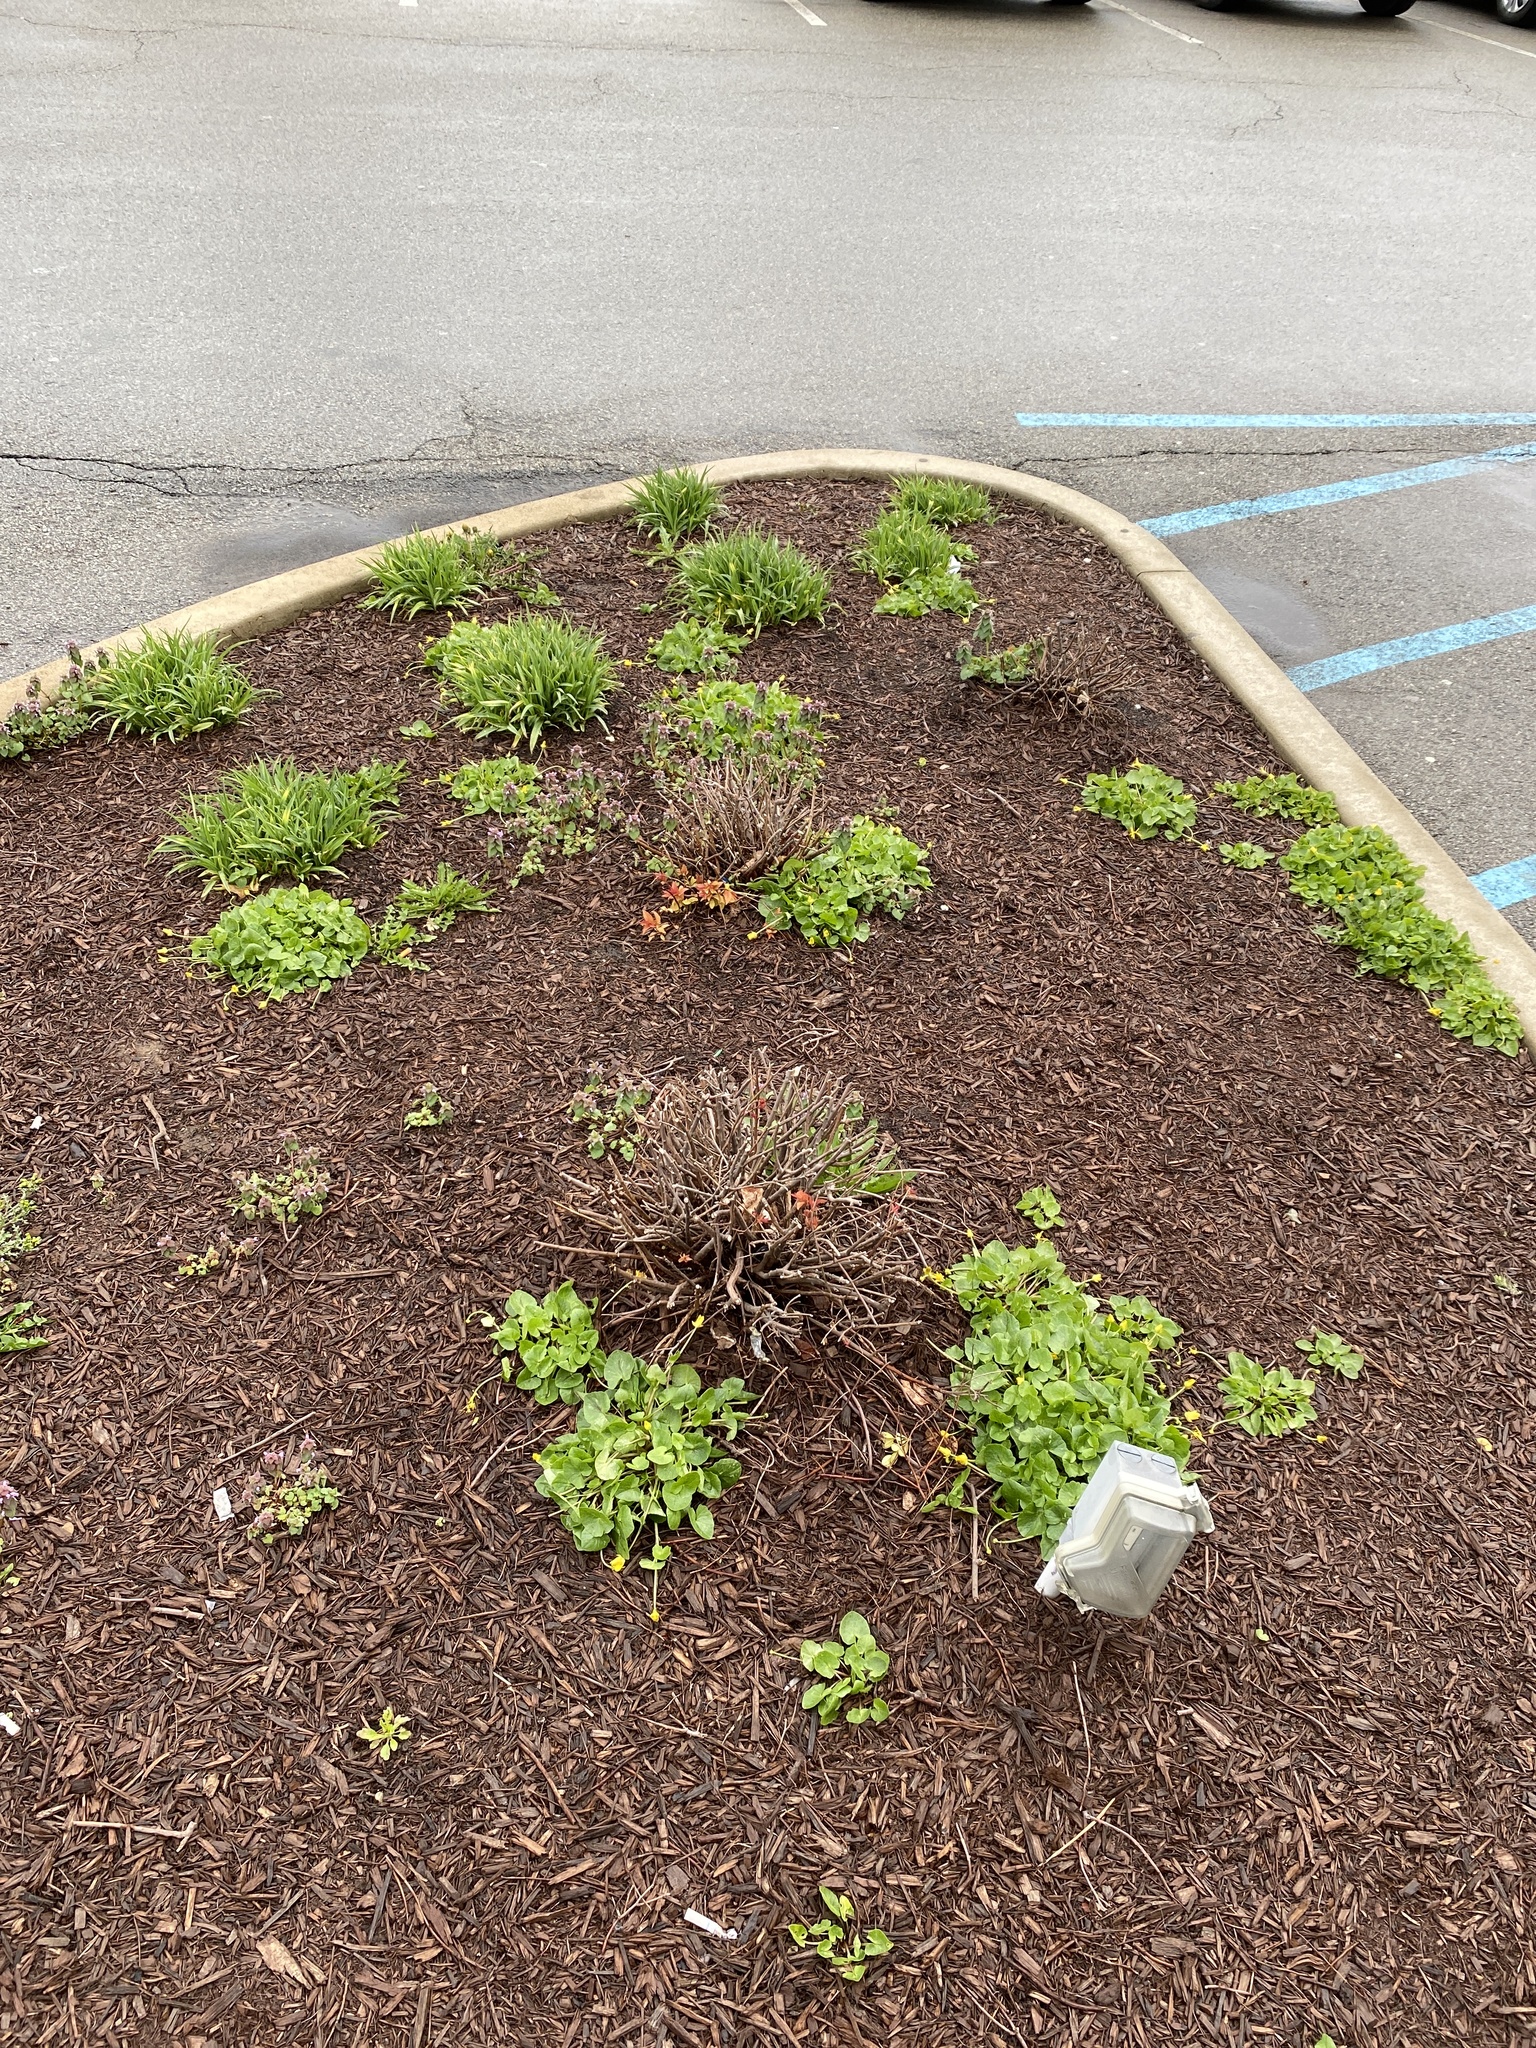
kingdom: Plantae
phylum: Tracheophyta
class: Magnoliopsida
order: Ranunculales
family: Ranunculaceae
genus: Ficaria
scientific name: Ficaria verna
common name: Lesser celandine
